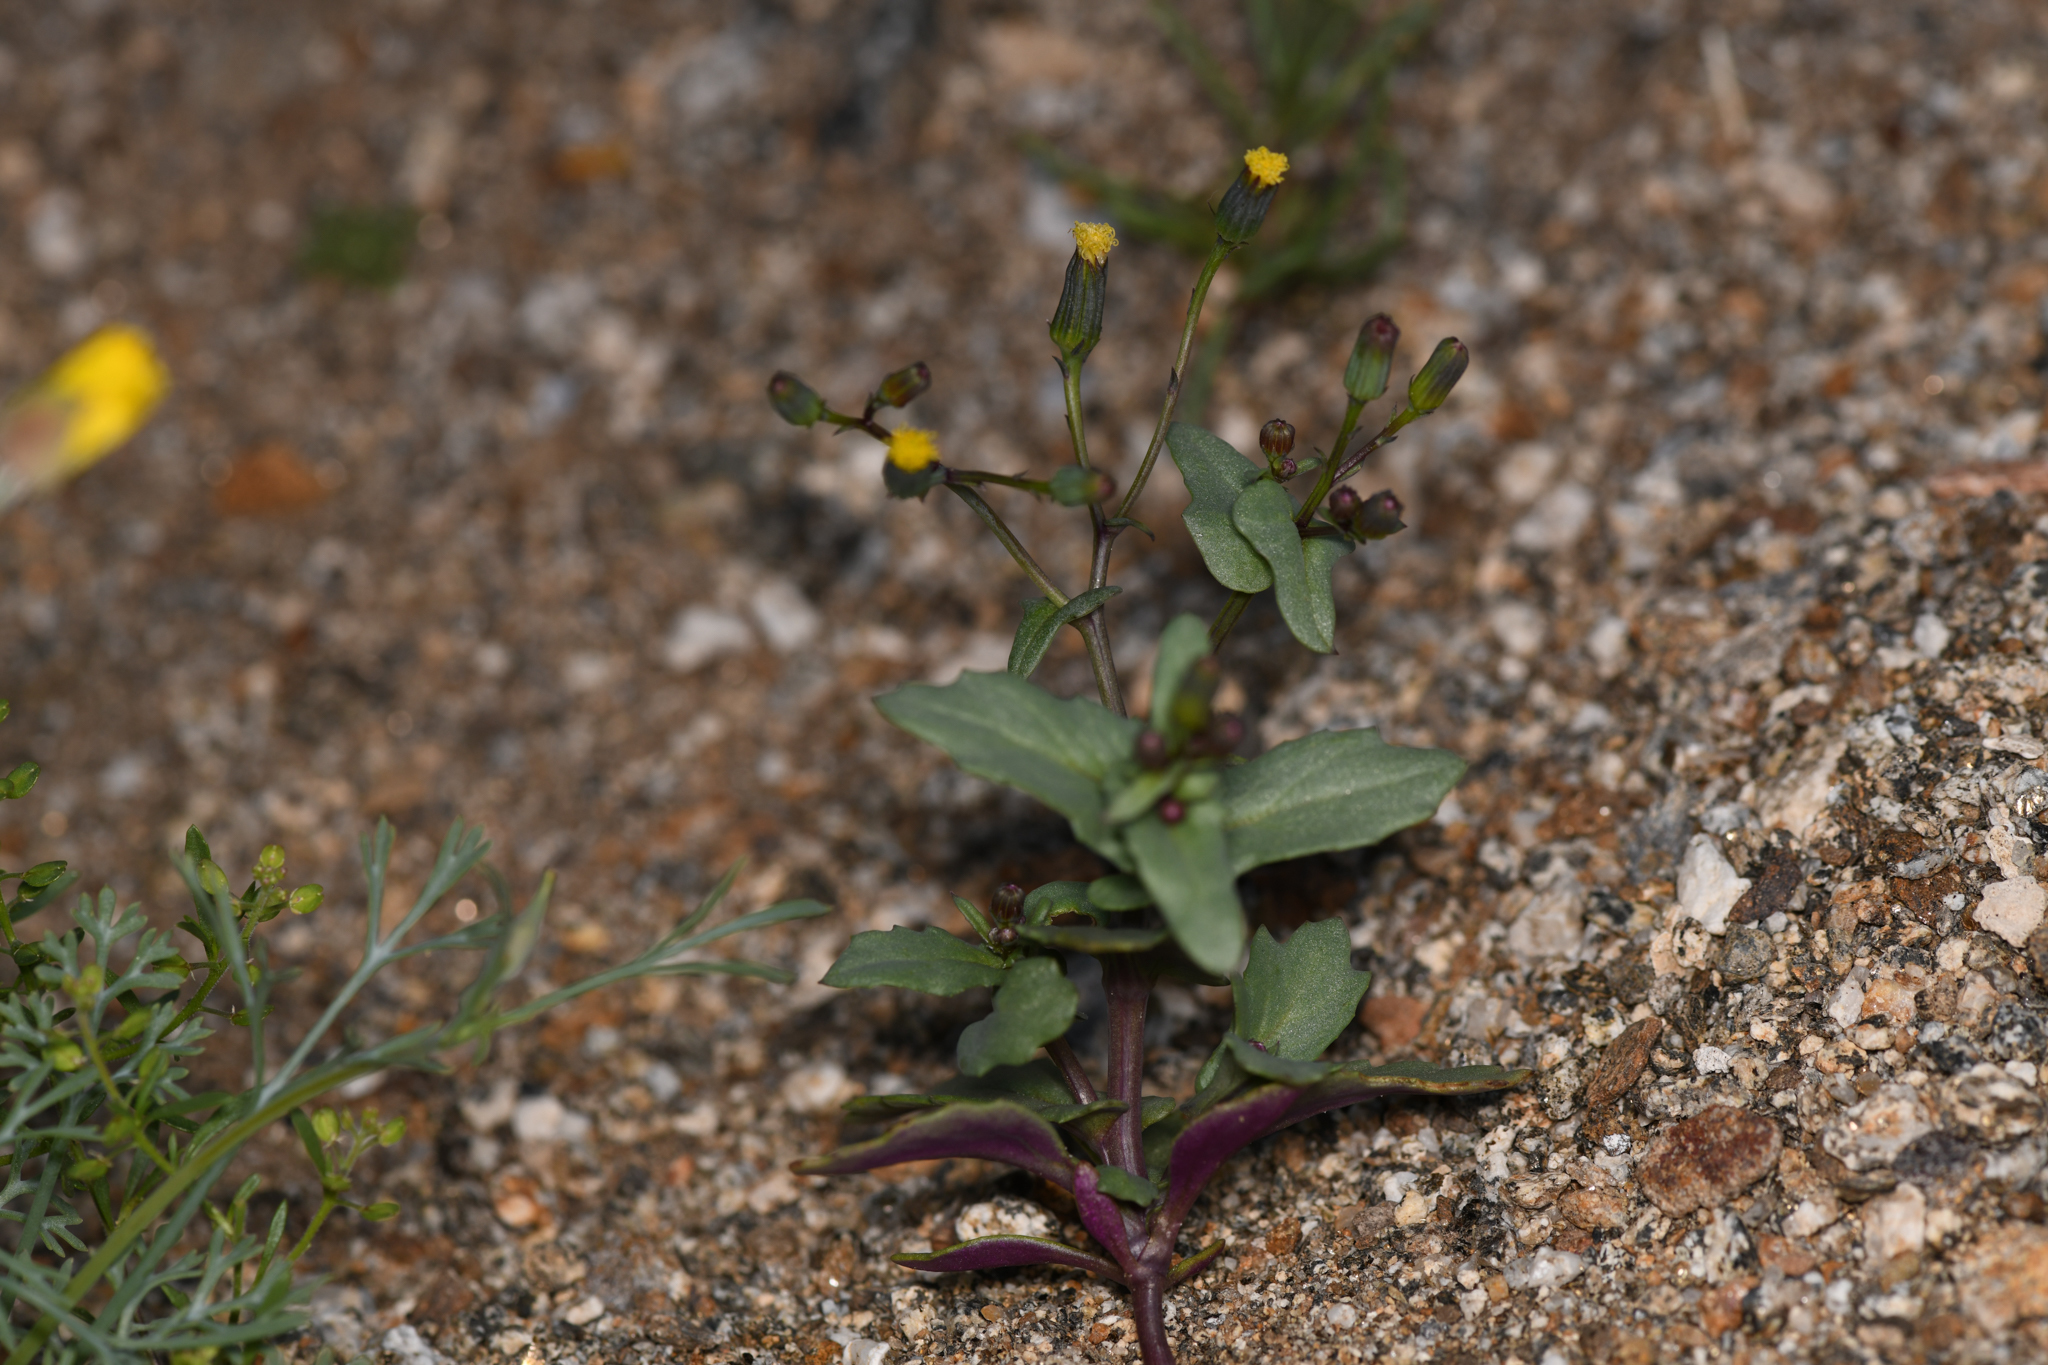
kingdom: Plantae
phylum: Tracheophyta
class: Magnoliopsida
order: Asterales
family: Asteraceae
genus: Senecio
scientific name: Senecio mohavensis
